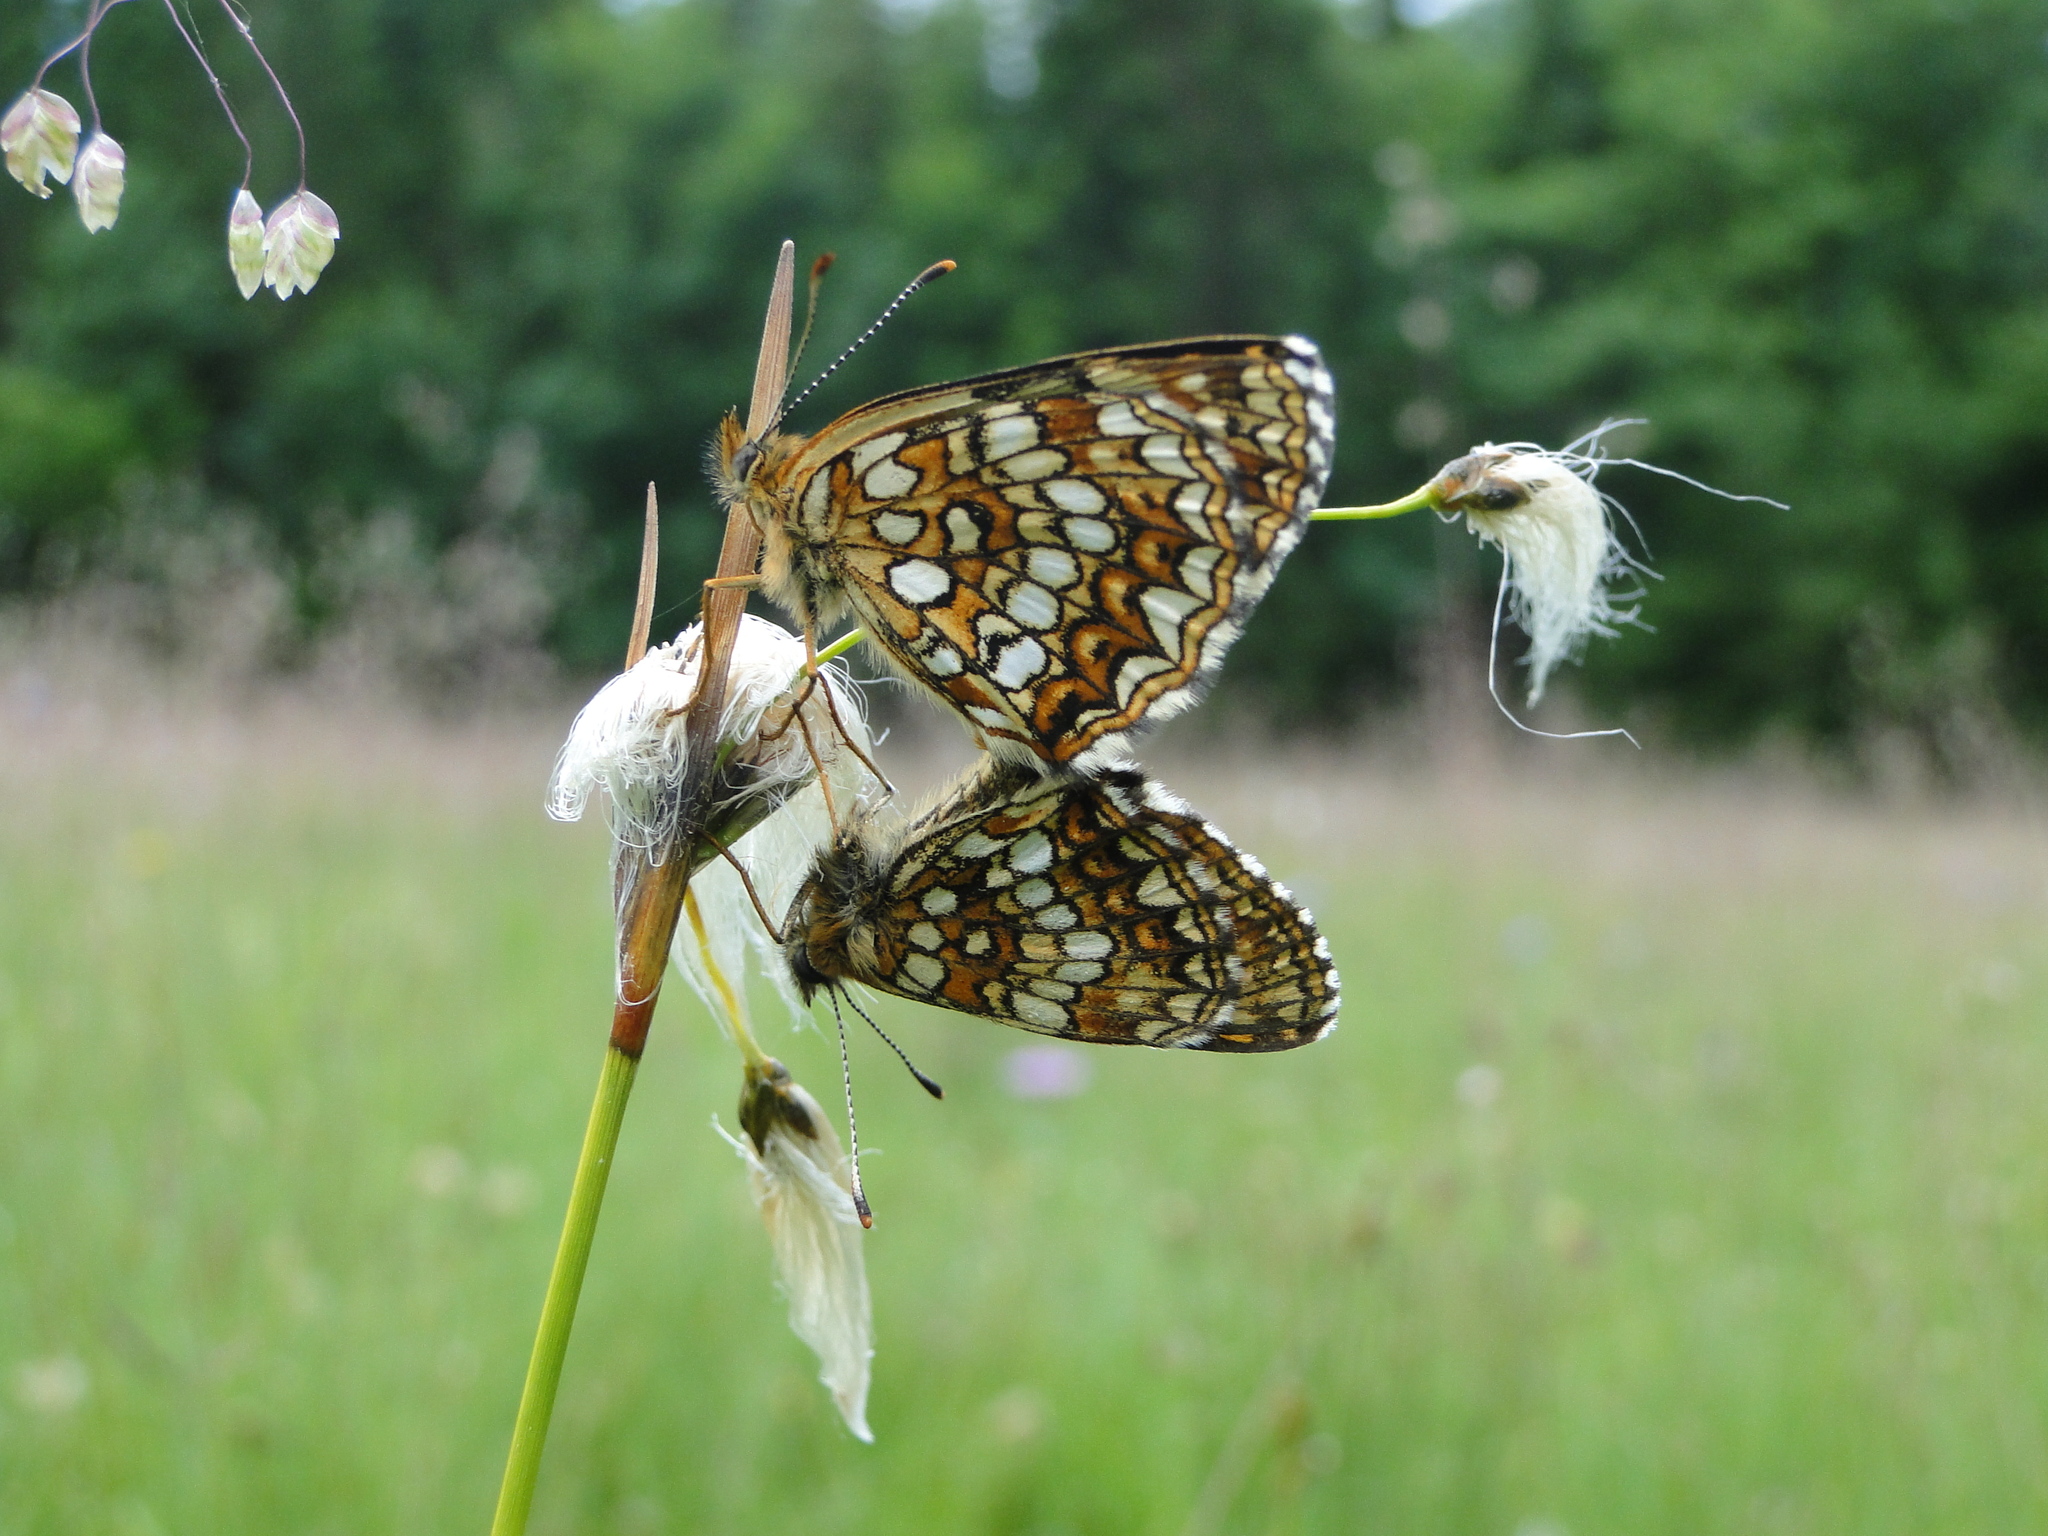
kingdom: Animalia
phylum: Arthropoda
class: Insecta
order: Lepidoptera
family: Nymphalidae
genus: Melitaea
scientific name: Melitaea diamina
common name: False heath fritillary
